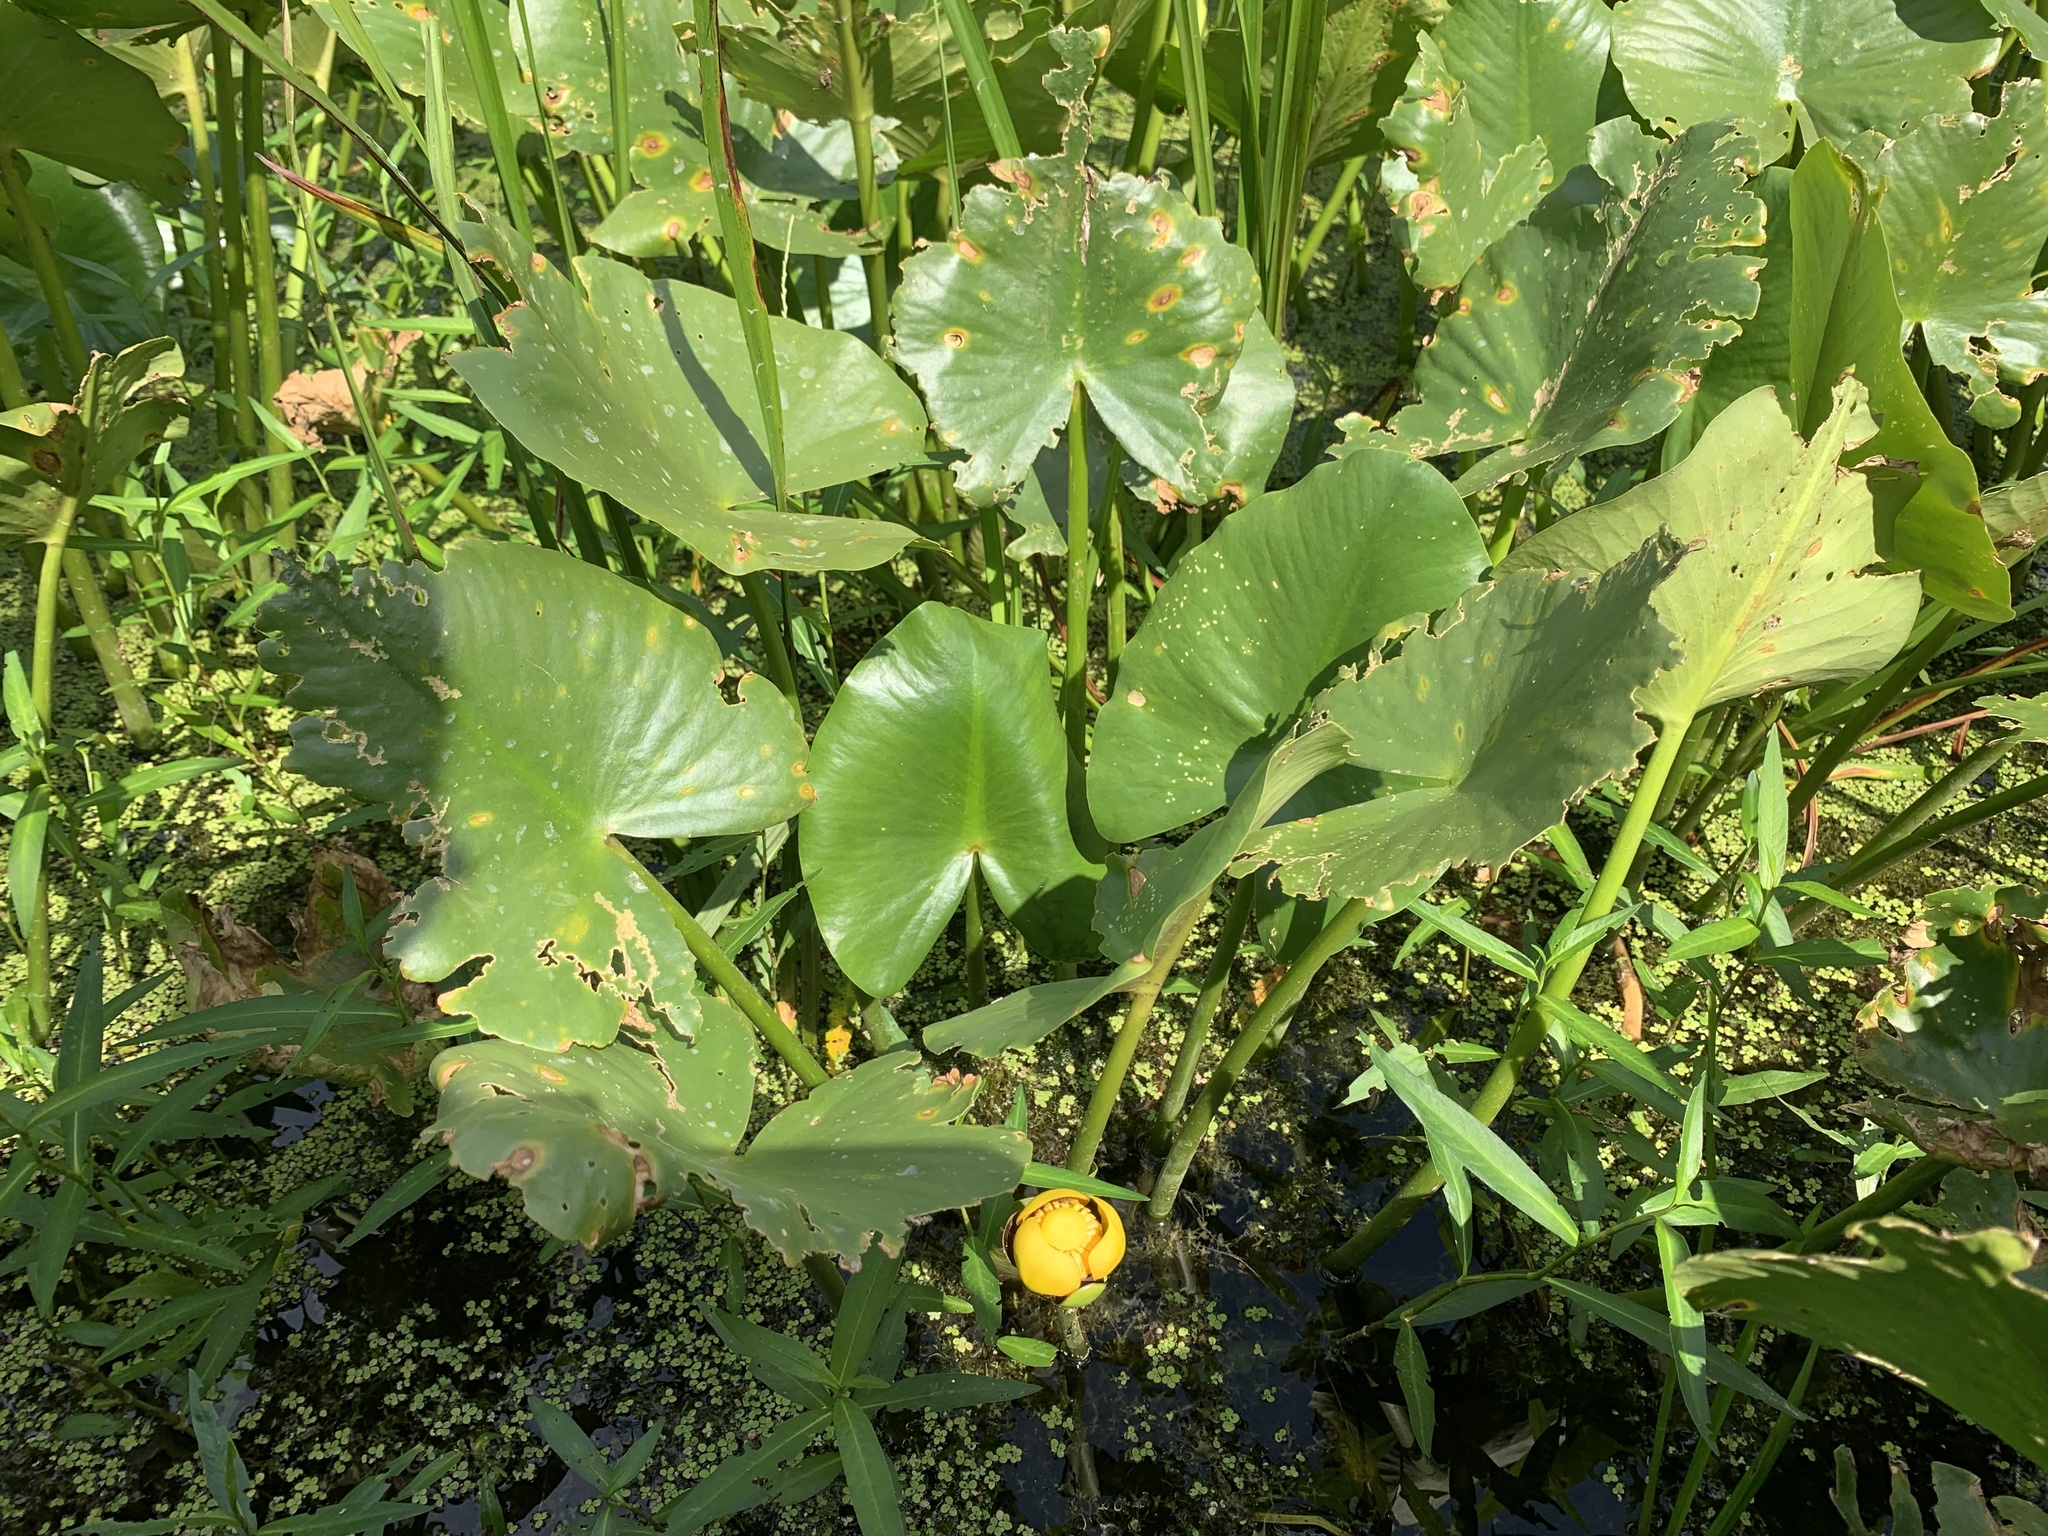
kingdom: Plantae
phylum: Tracheophyta
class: Magnoliopsida
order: Nymphaeales
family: Nymphaeaceae
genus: Nuphar
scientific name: Nuphar advena
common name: Spatter-dock
